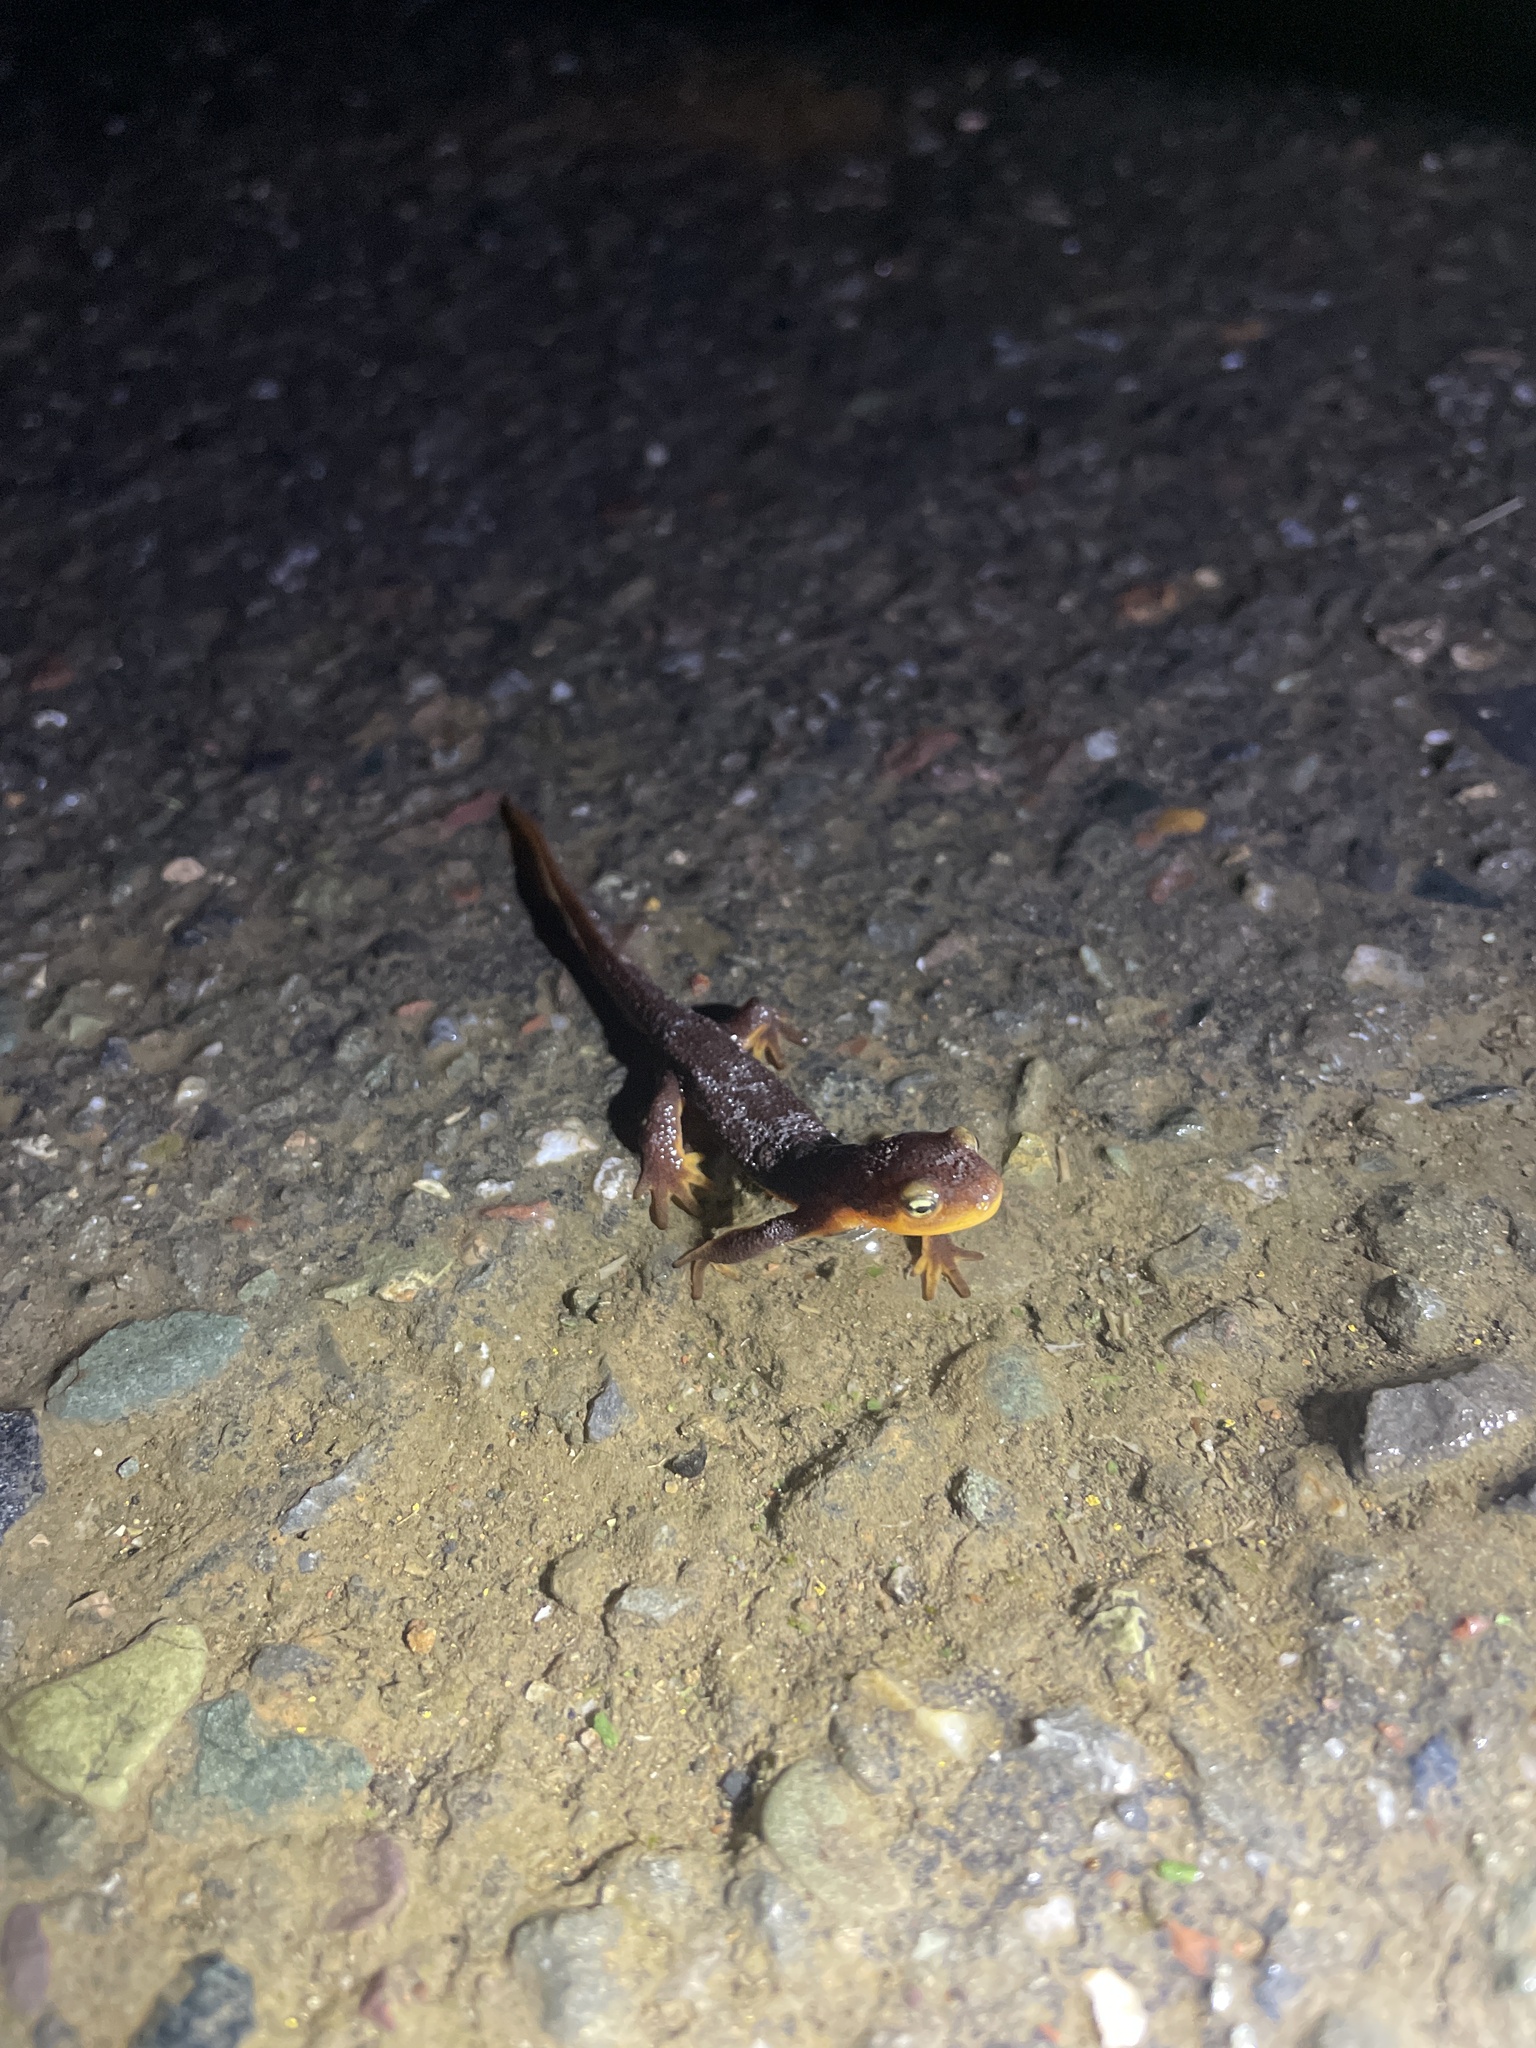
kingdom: Animalia
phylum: Chordata
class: Amphibia
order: Caudata
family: Salamandridae
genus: Taricha
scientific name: Taricha torosa
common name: California newt
